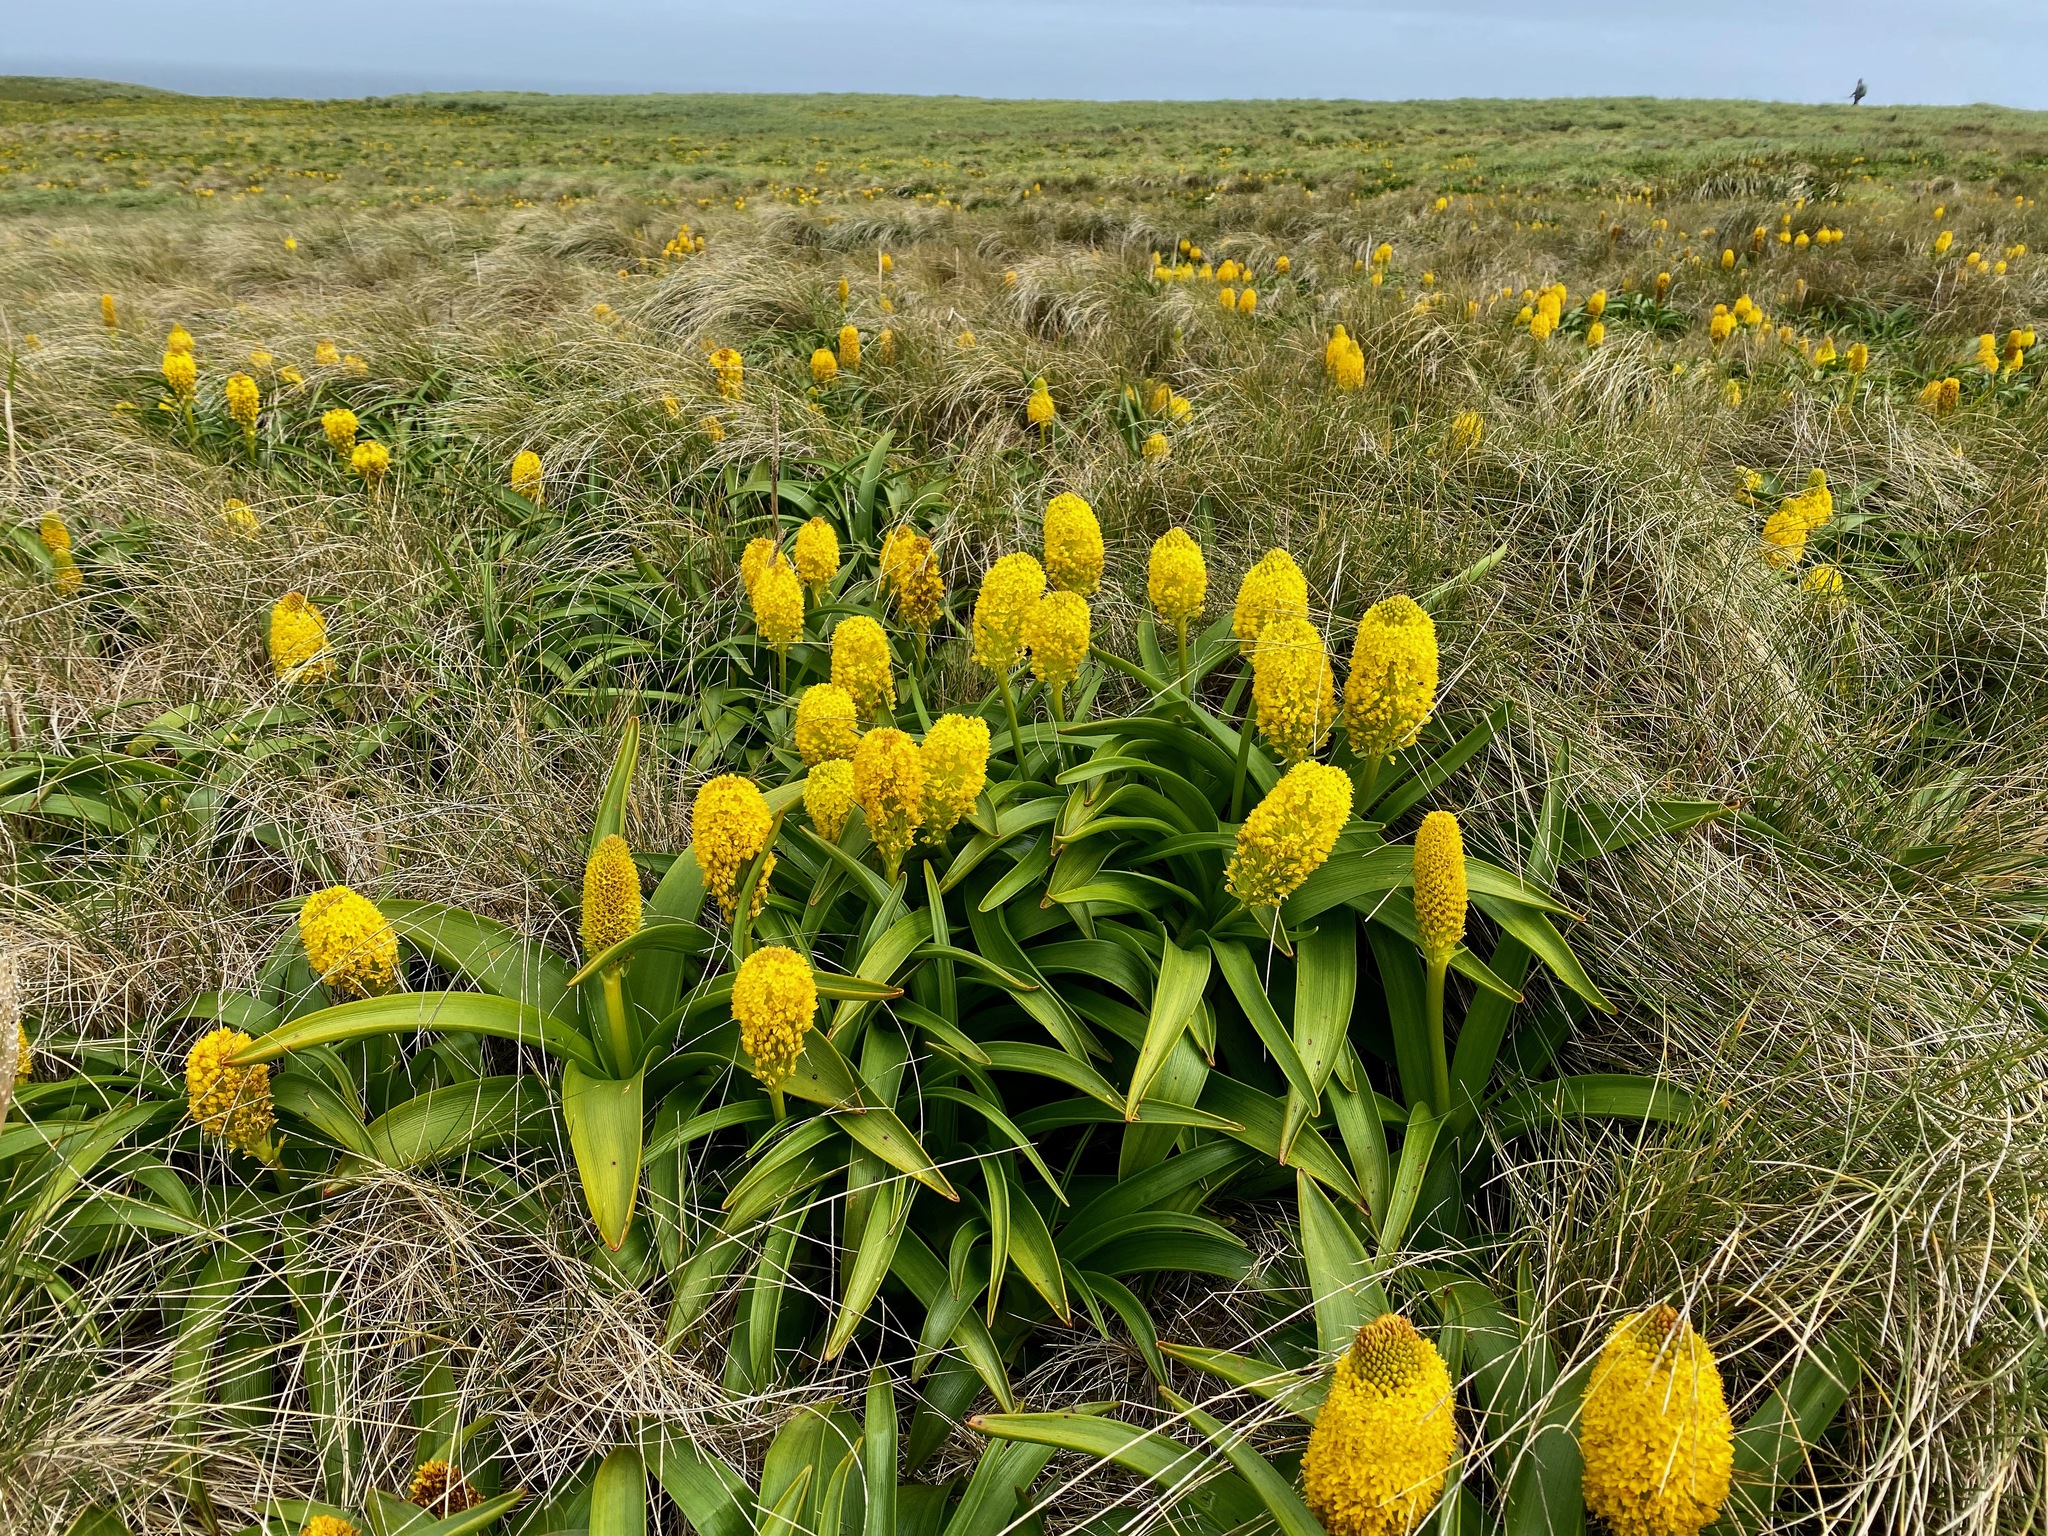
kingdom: Plantae
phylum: Tracheophyta
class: Liliopsida
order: Asparagales
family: Asphodelaceae
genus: Bulbinella
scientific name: Bulbinella rossii
